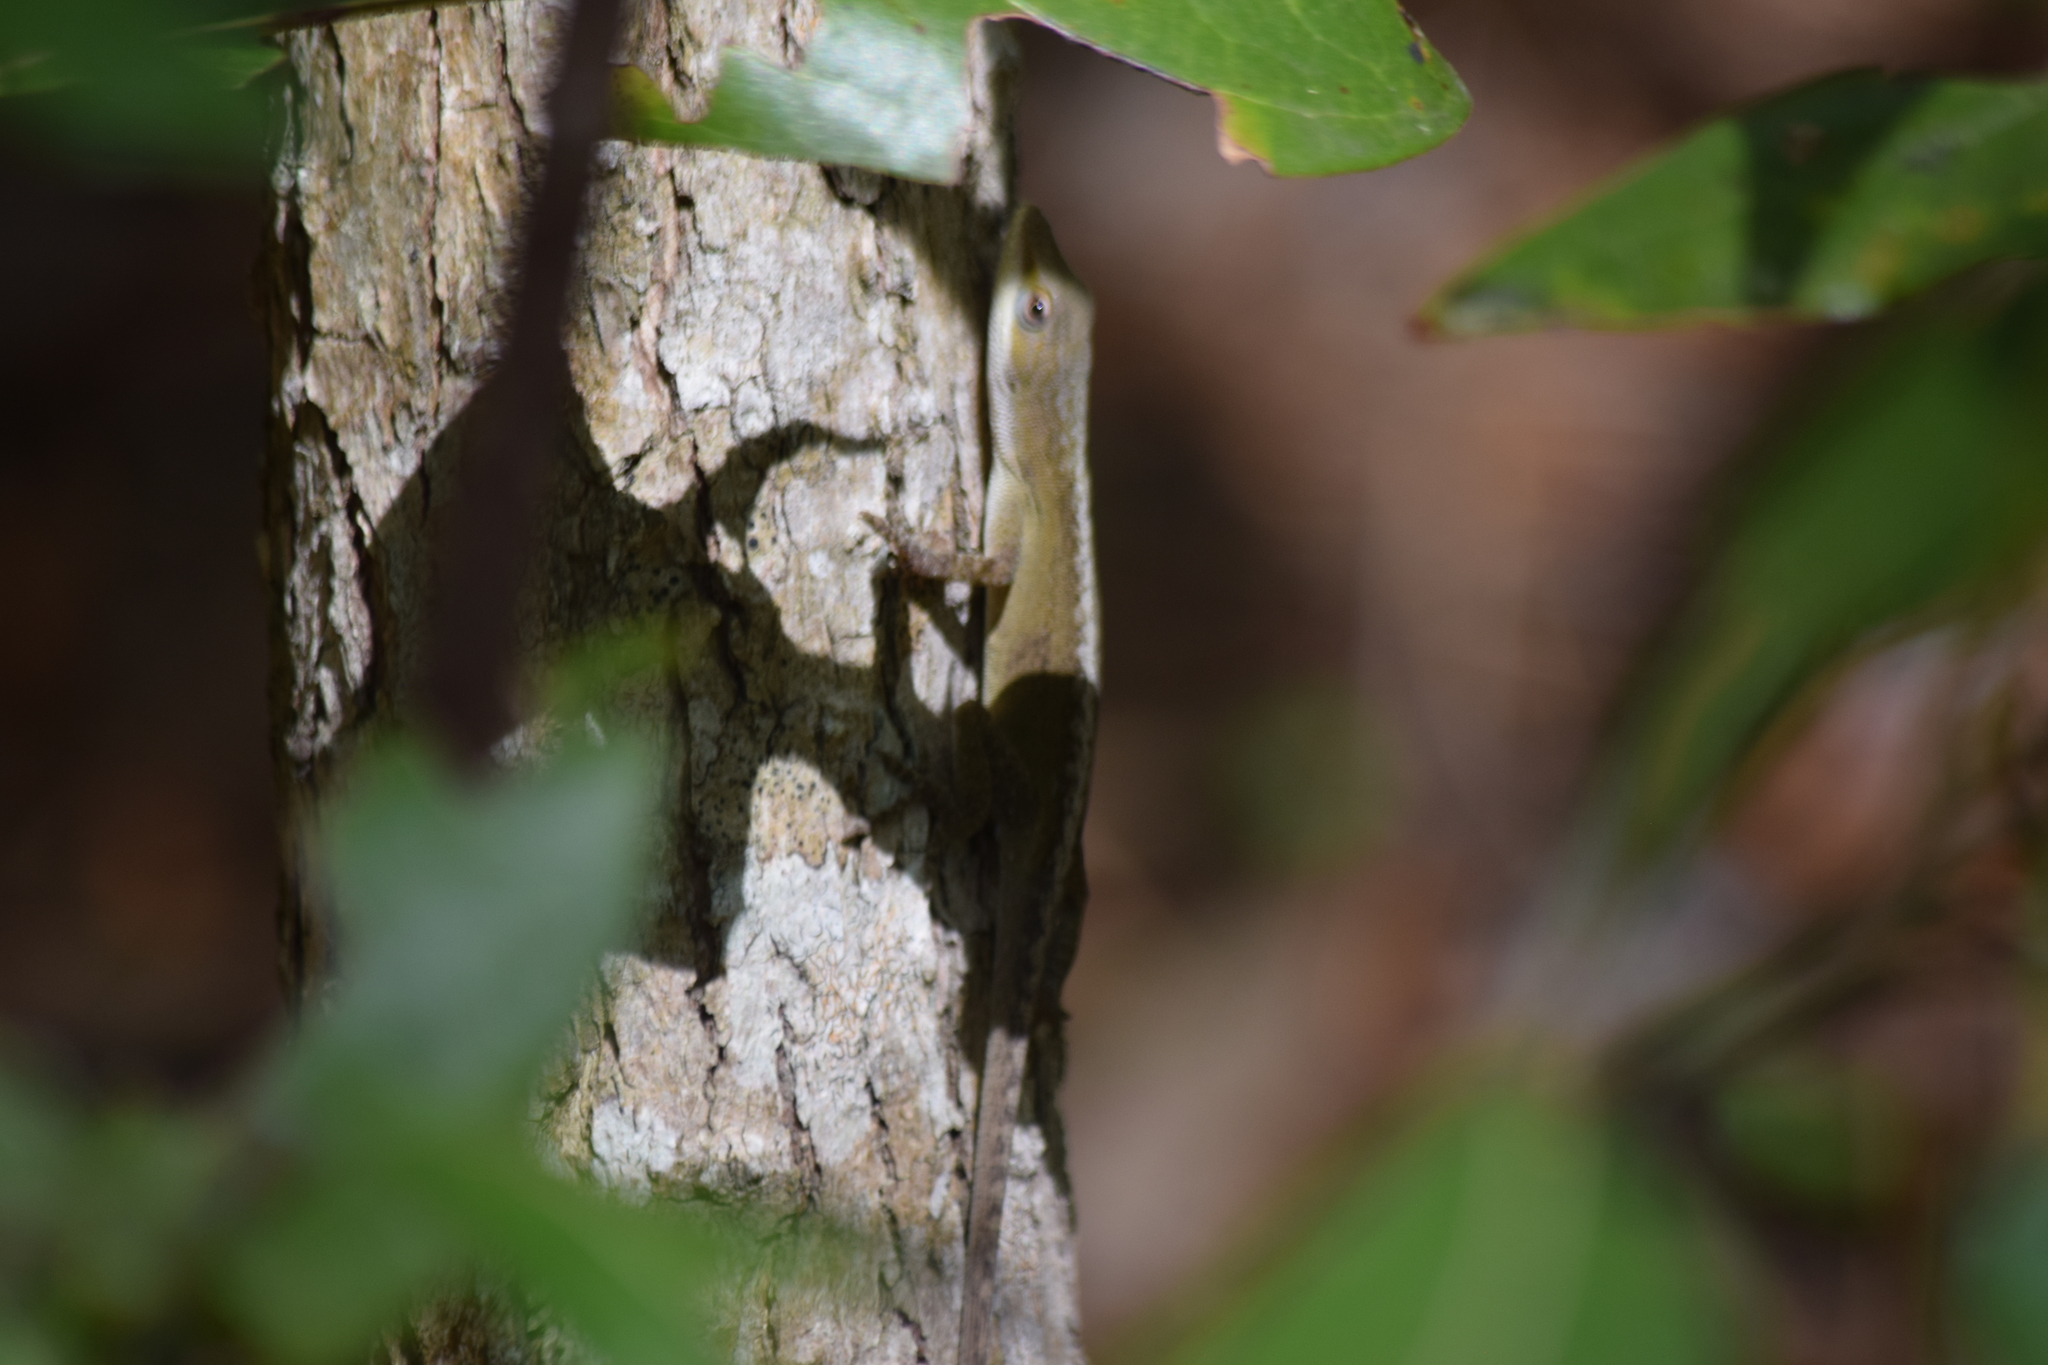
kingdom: Animalia
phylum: Chordata
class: Squamata
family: Dactyloidae
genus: Anolis
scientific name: Anolis carolinensis
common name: Green anole
